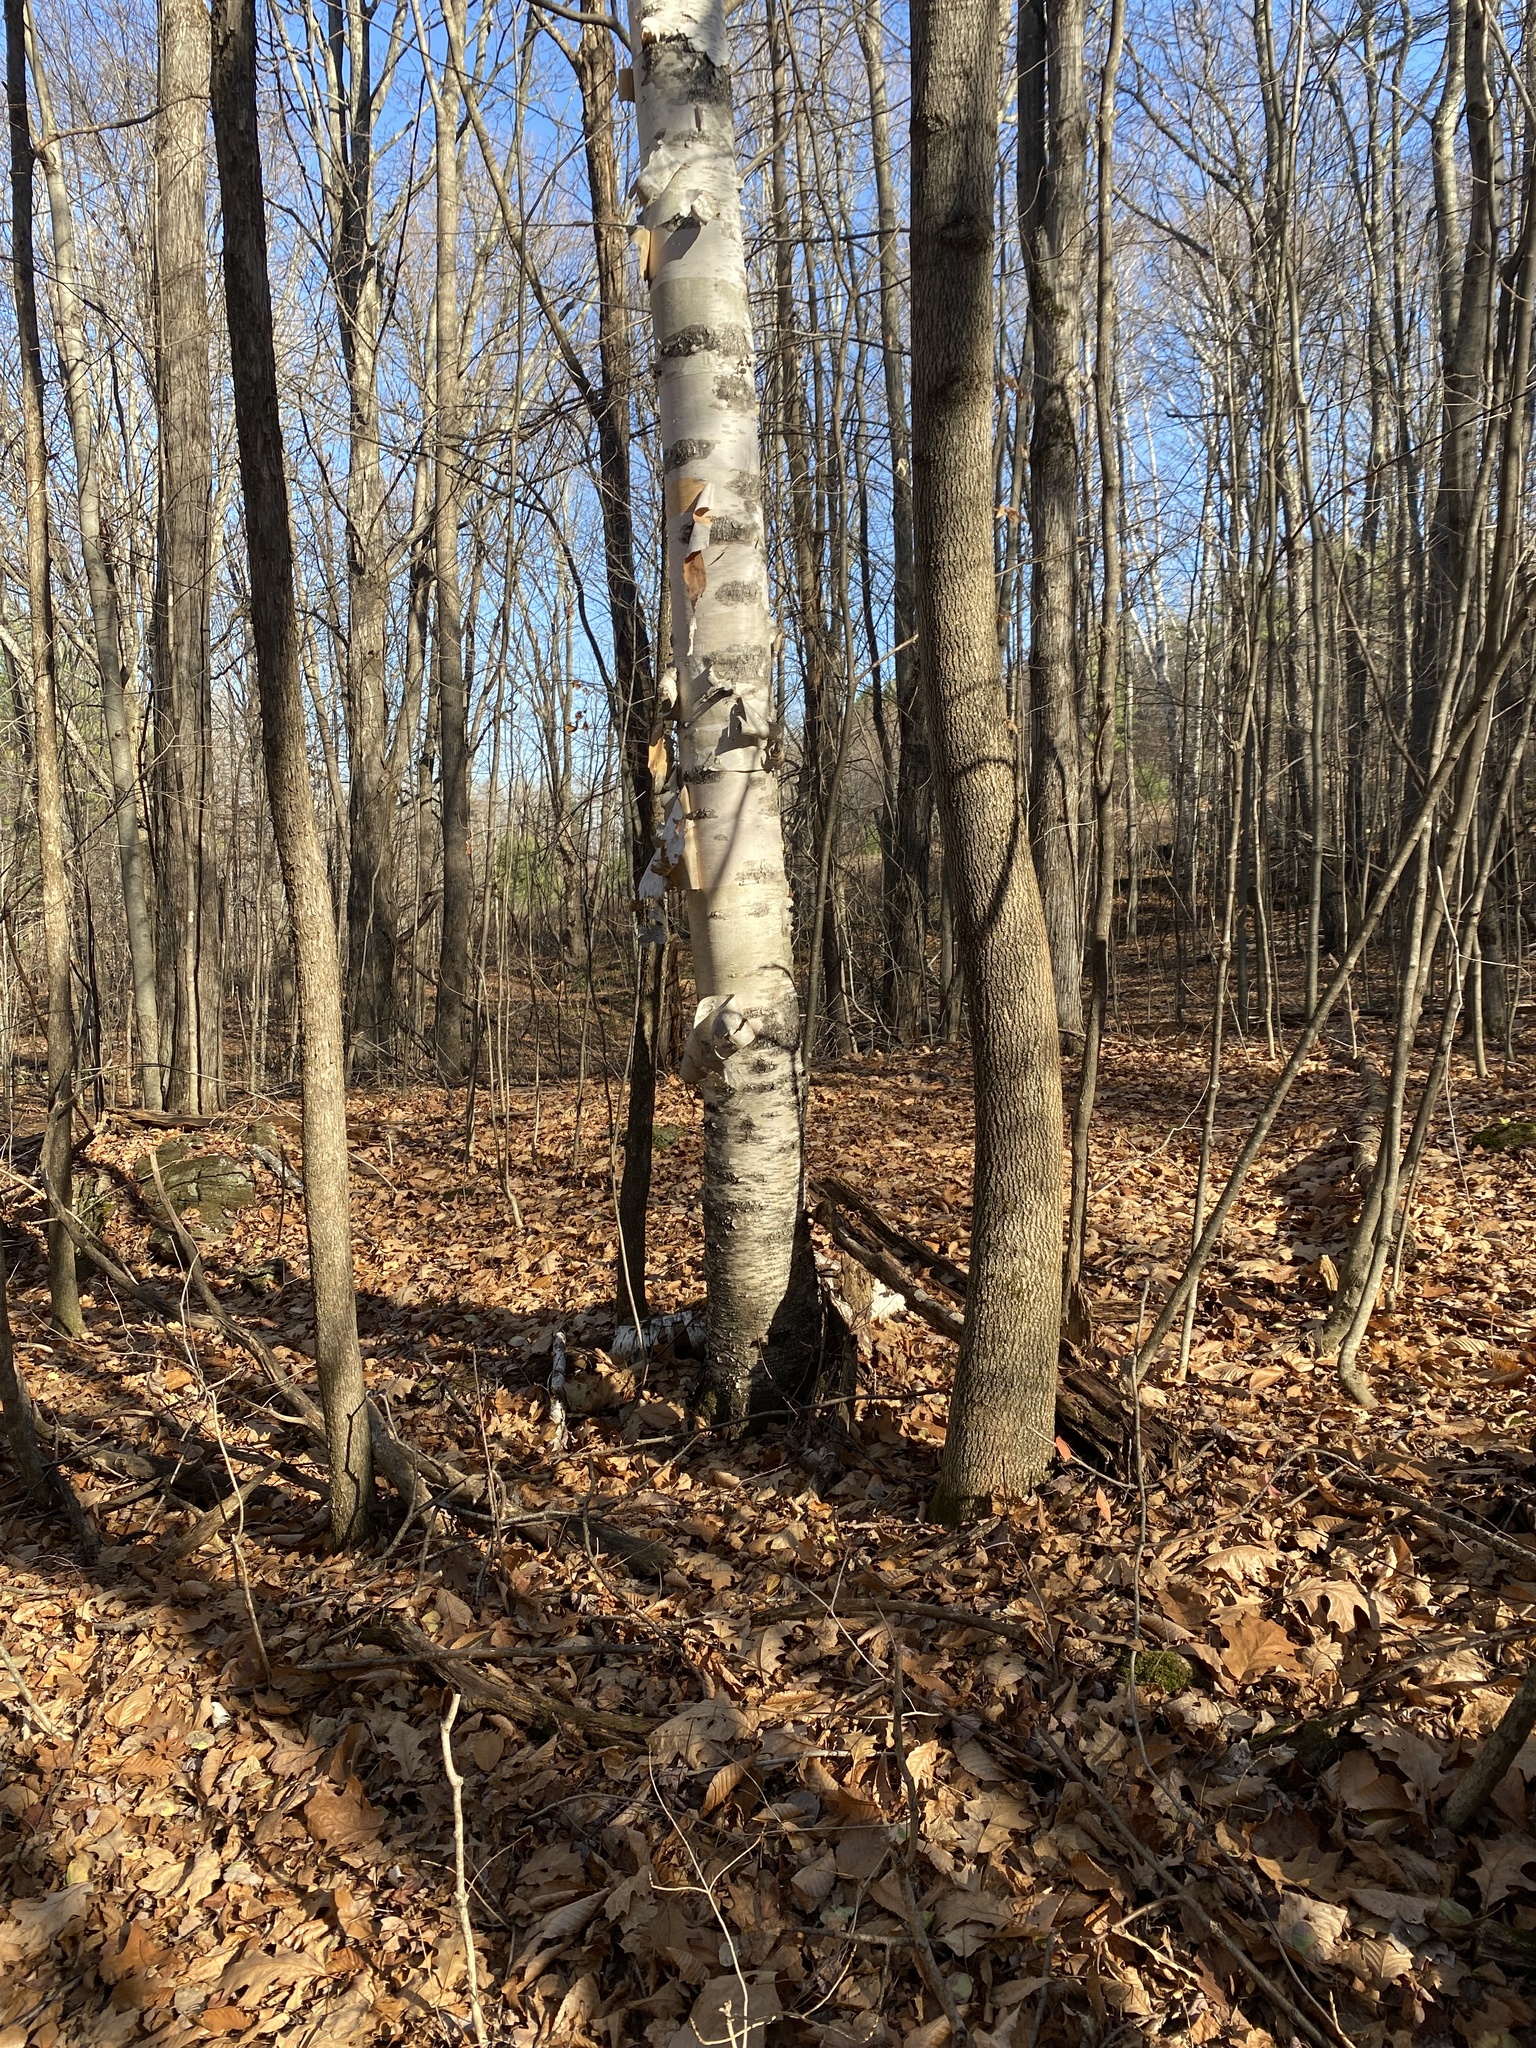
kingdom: Plantae
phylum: Tracheophyta
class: Magnoliopsida
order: Fagales
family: Betulaceae
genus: Betula
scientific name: Betula papyrifera
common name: Paper birch
